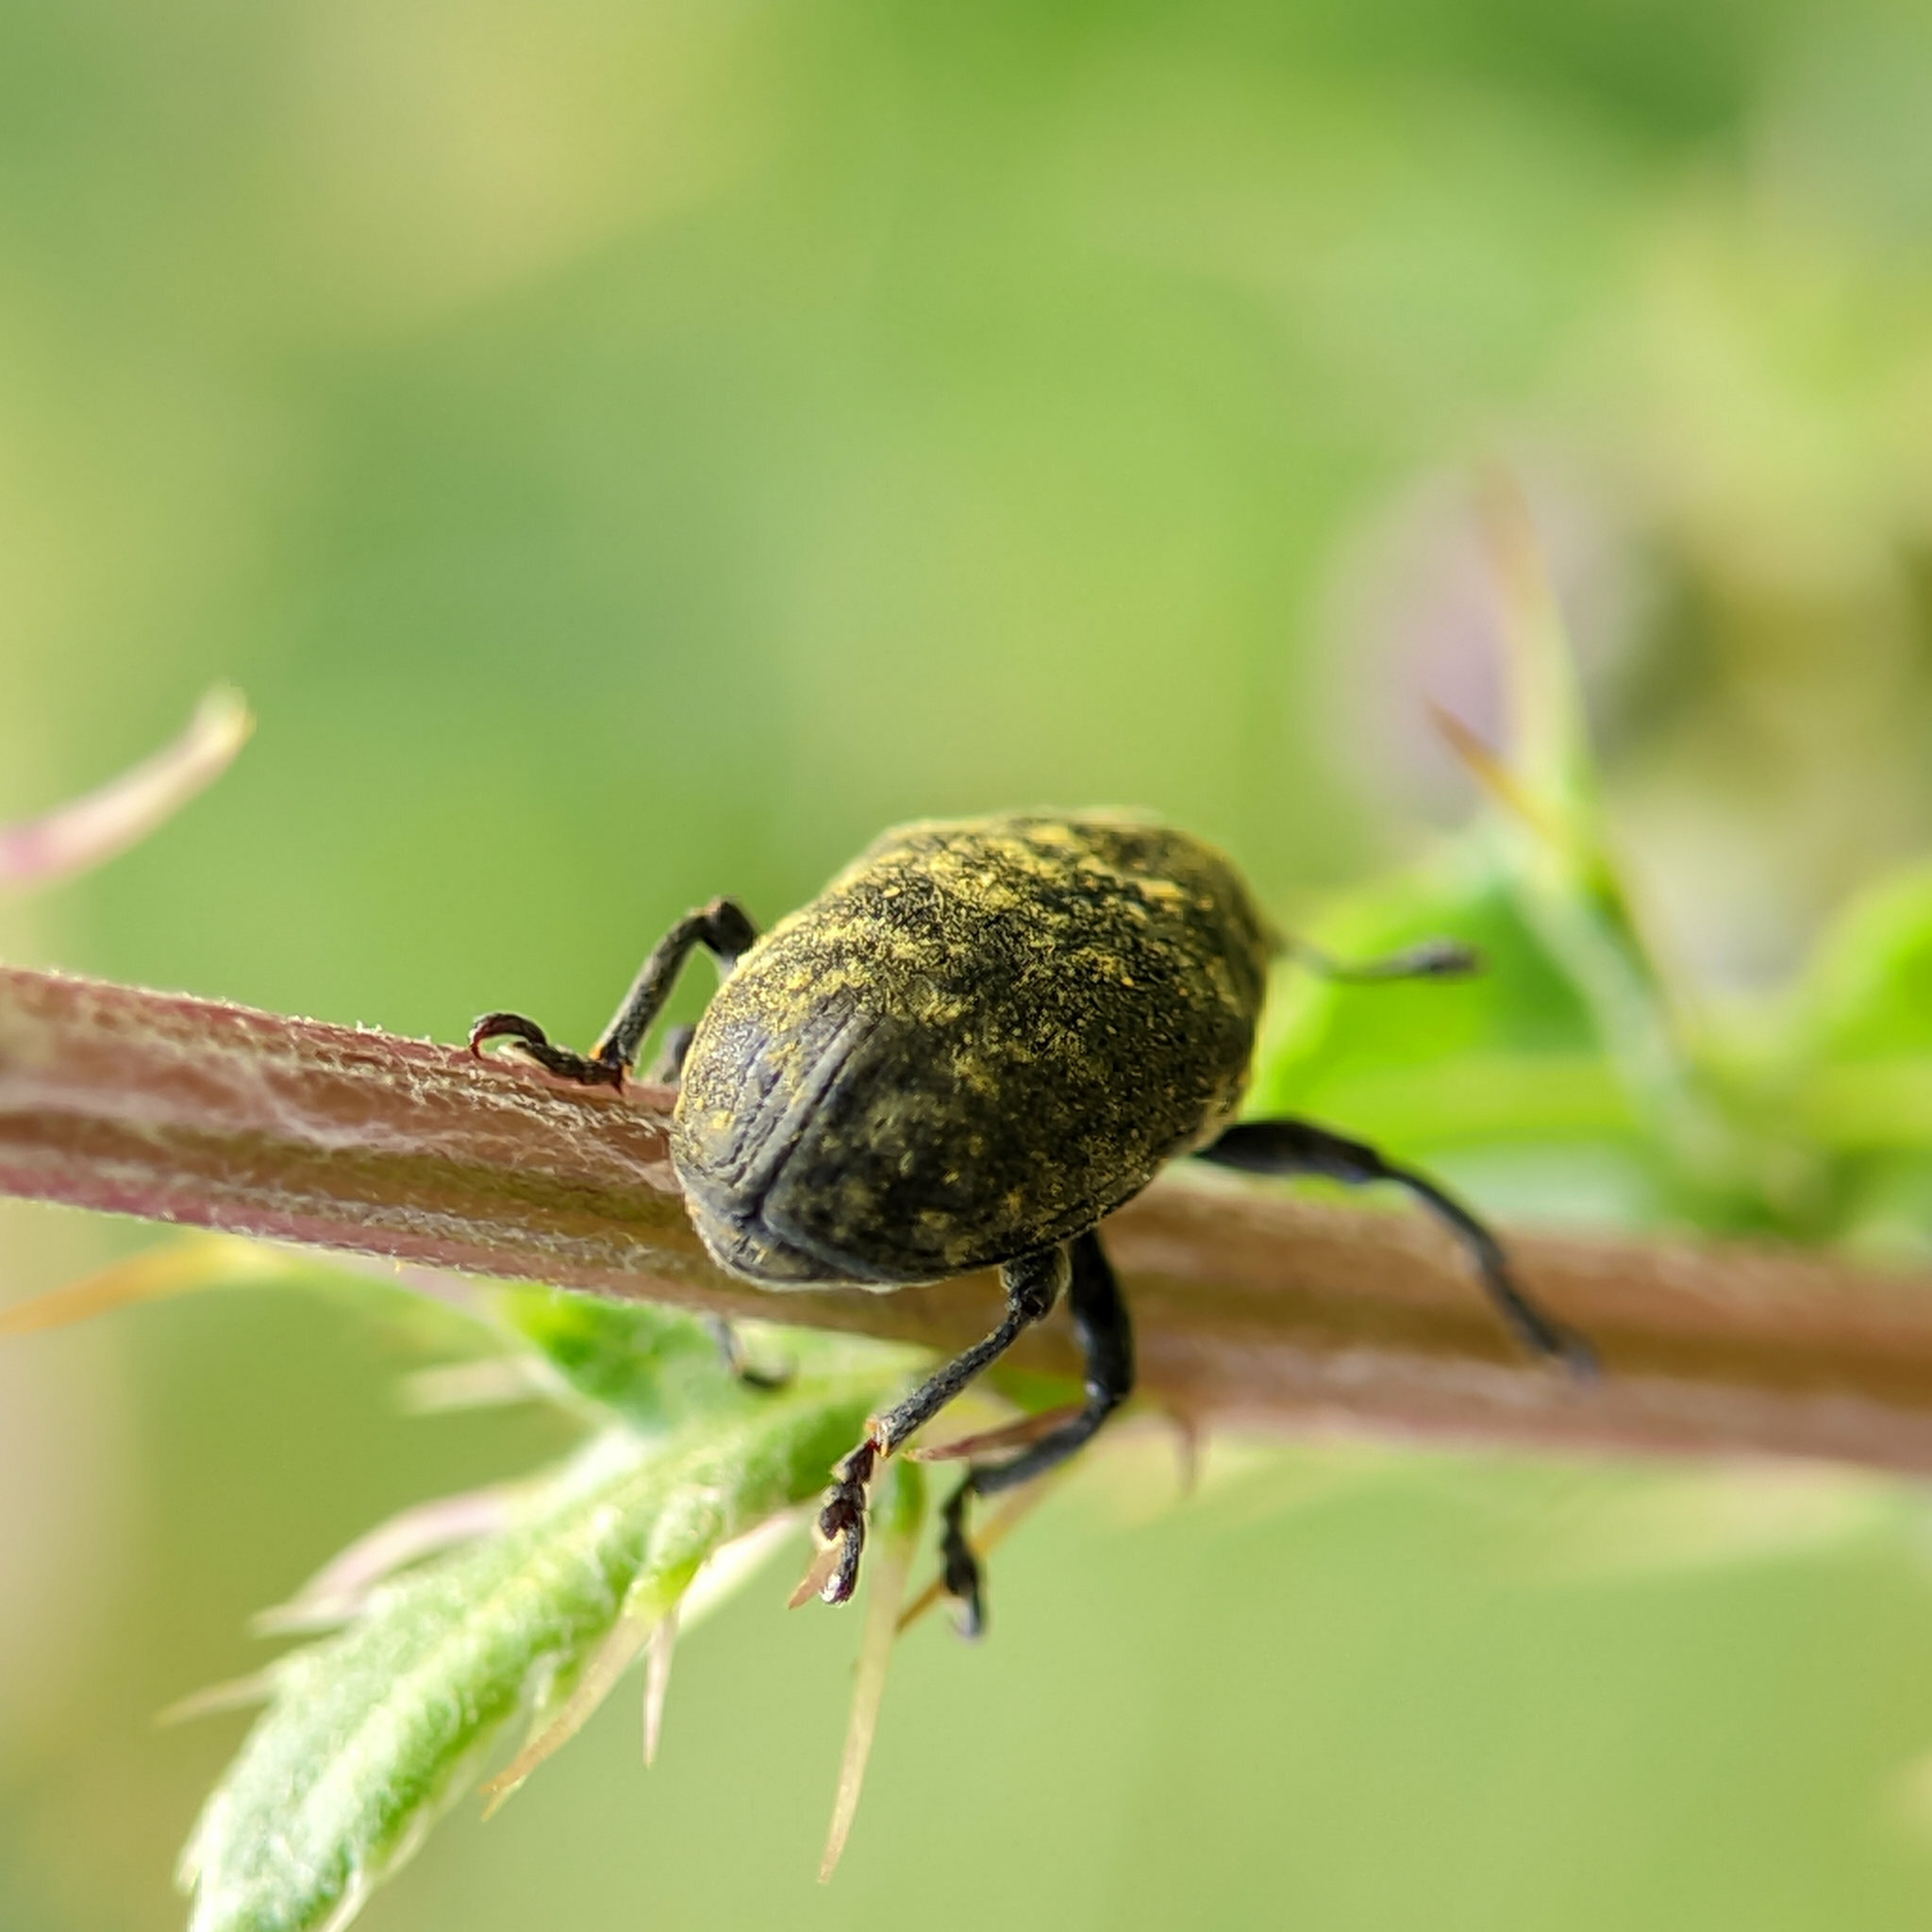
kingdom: Animalia
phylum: Arthropoda
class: Insecta
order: Coleoptera
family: Curculionidae
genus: Larinus
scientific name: Larinus turbinatus
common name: Weevil
